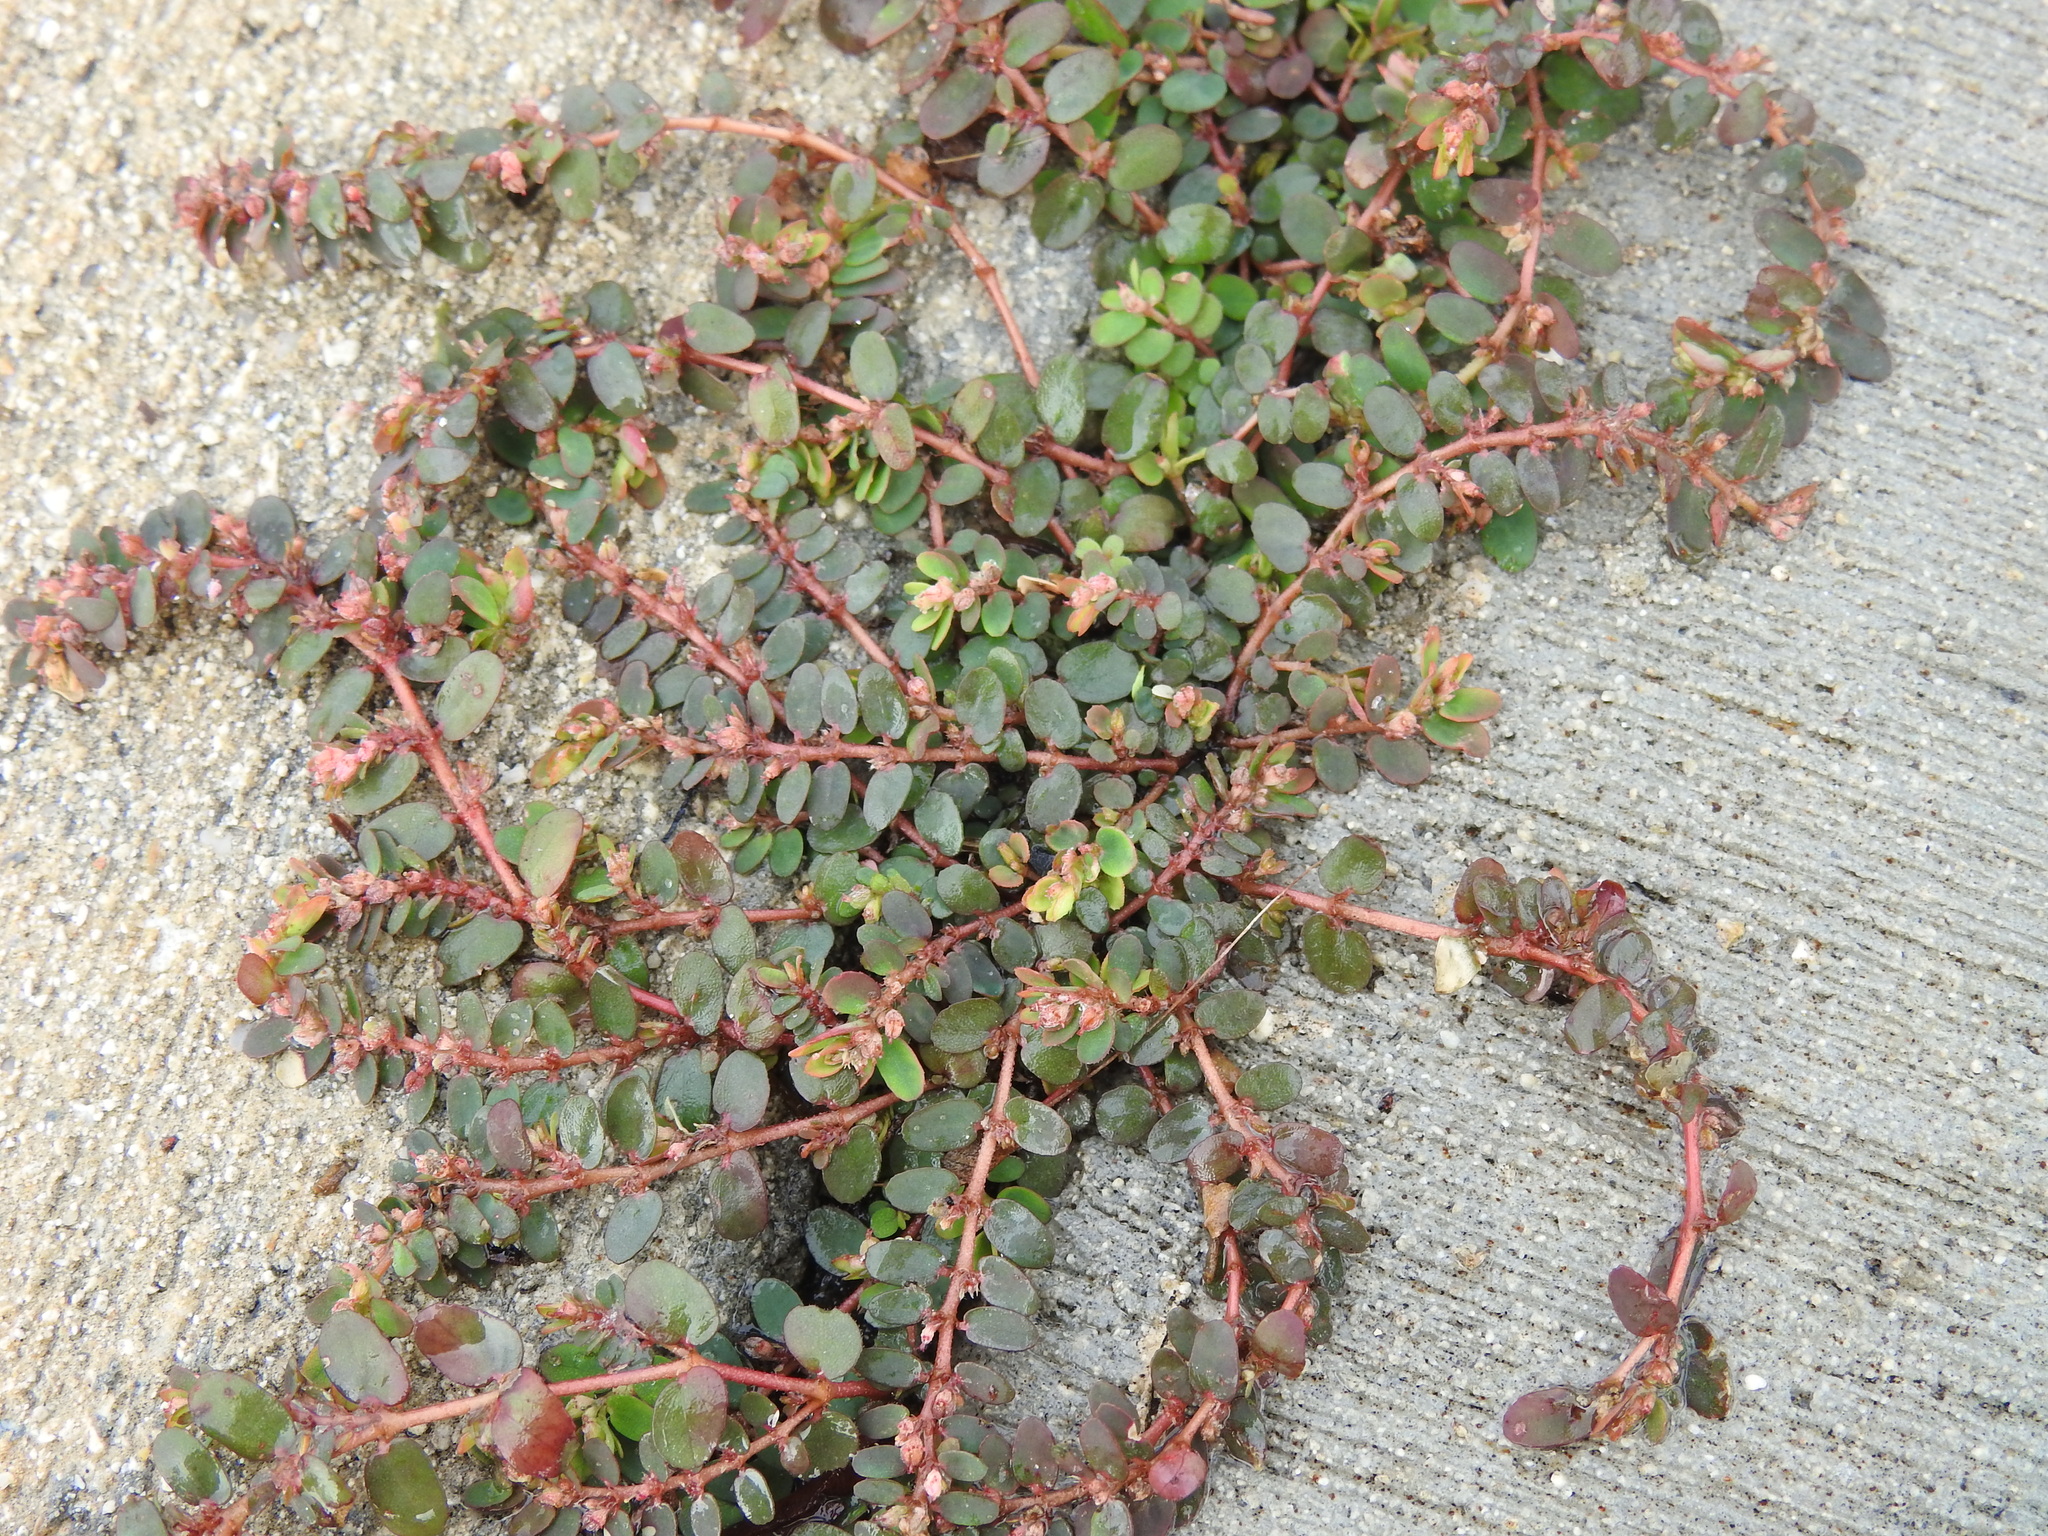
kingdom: Plantae
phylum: Tracheophyta
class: Magnoliopsida
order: Malpighiales
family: Euphorbiaceae
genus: Euphorbia
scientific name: Euphorbia thymifolia
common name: Gulf sandmat
